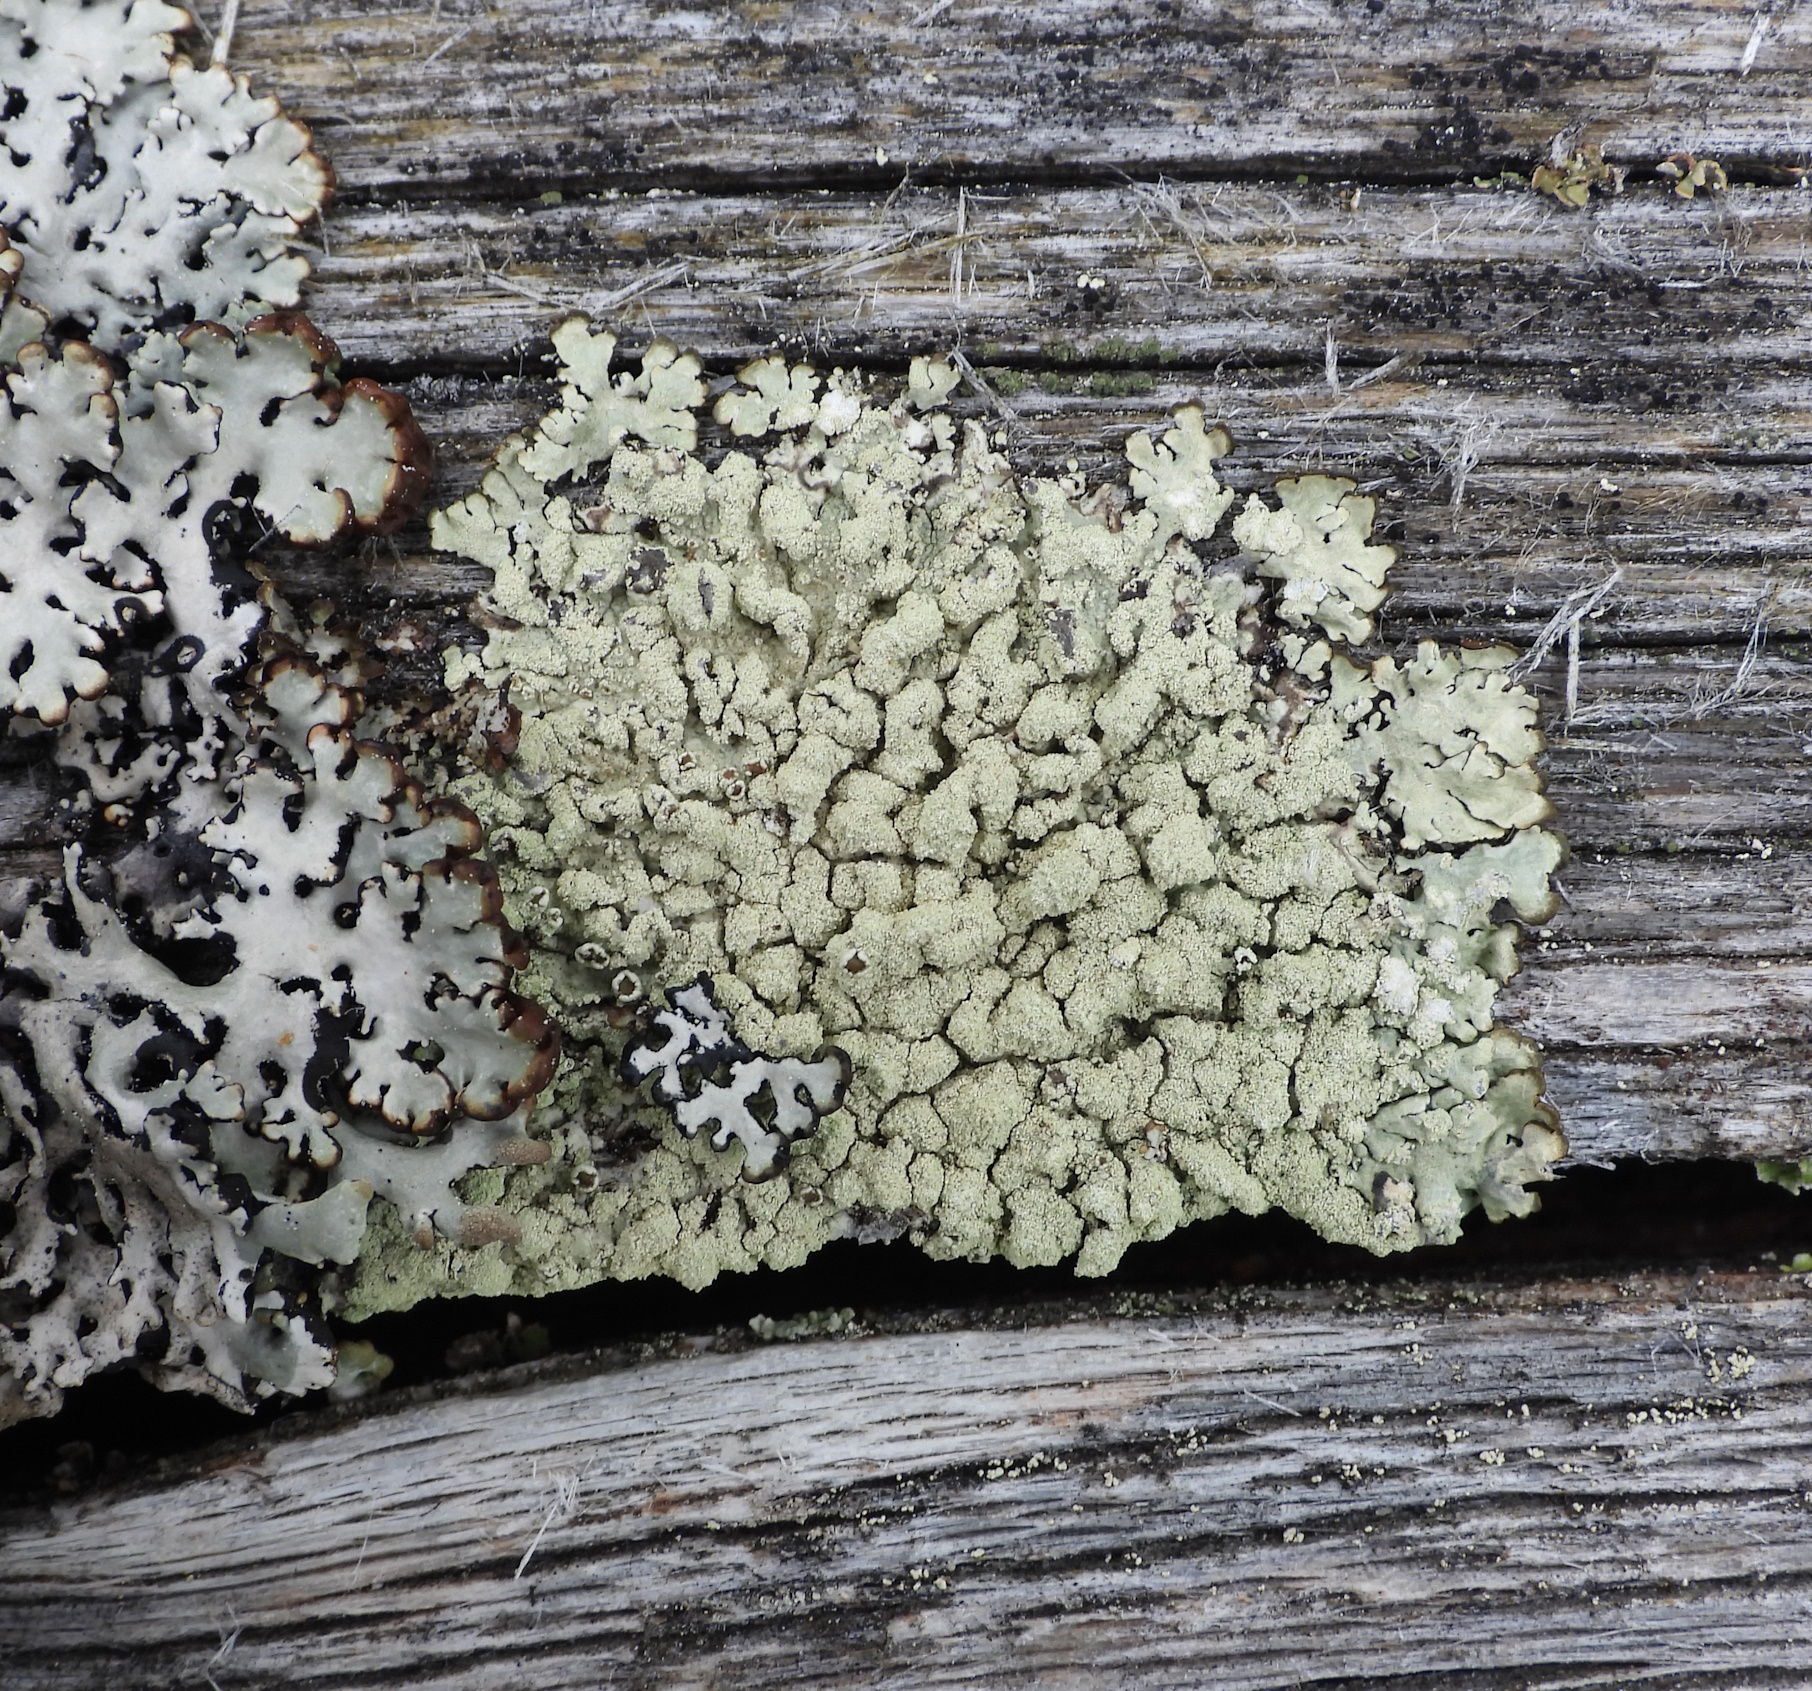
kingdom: Fungi
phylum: Ascomycota
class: Lecanoromycetes
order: Lecanorales
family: Parmeliaceae
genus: Parmeliopsis
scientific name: Parmeliopsis ambigua
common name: Green starburst lichen
